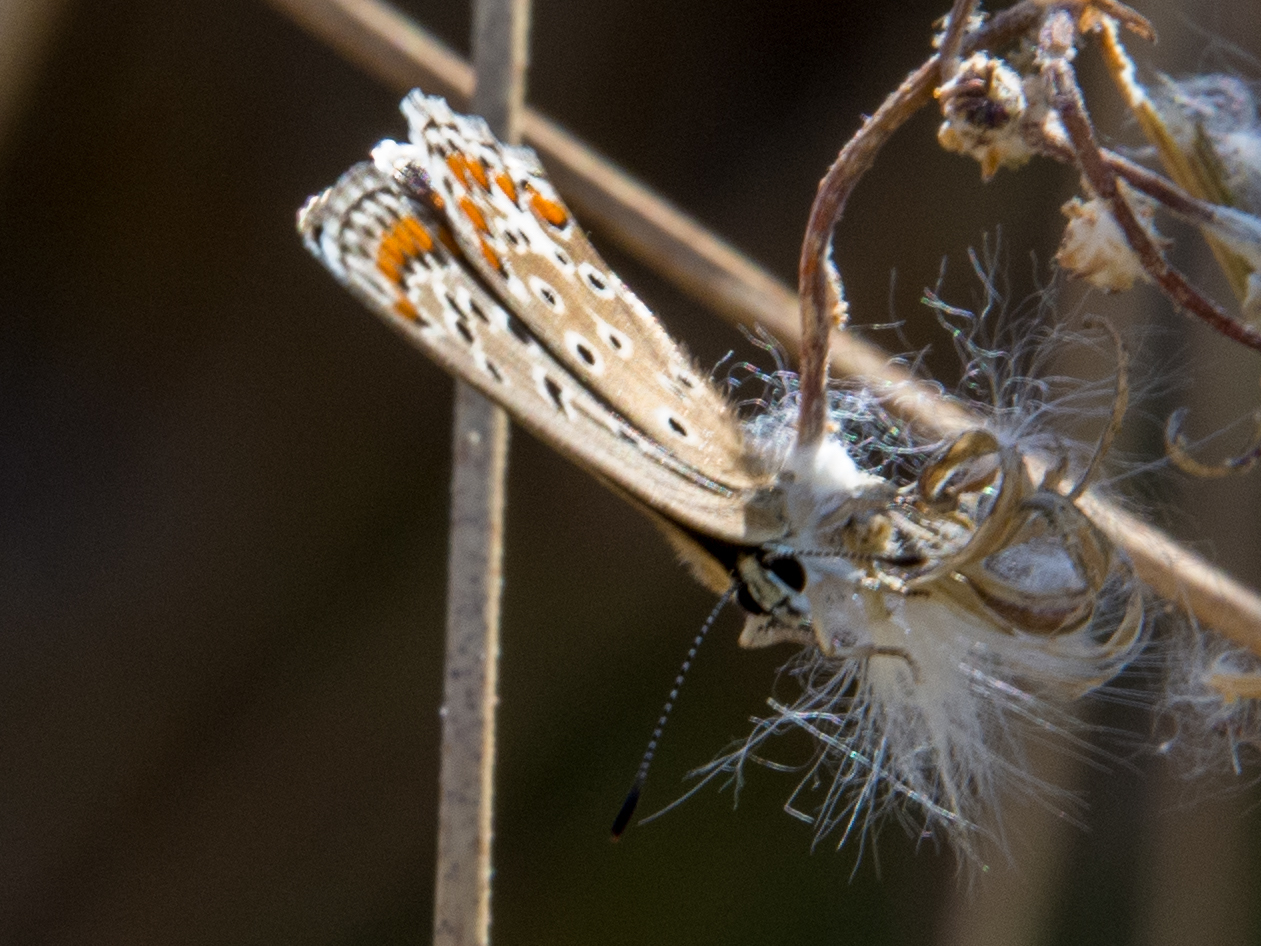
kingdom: Animalia
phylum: Arthropoda
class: Insecta
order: Lepidoptera
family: Lycaenidae
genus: Polyommatus
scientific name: Polyommatus celina
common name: Austaut's blue
